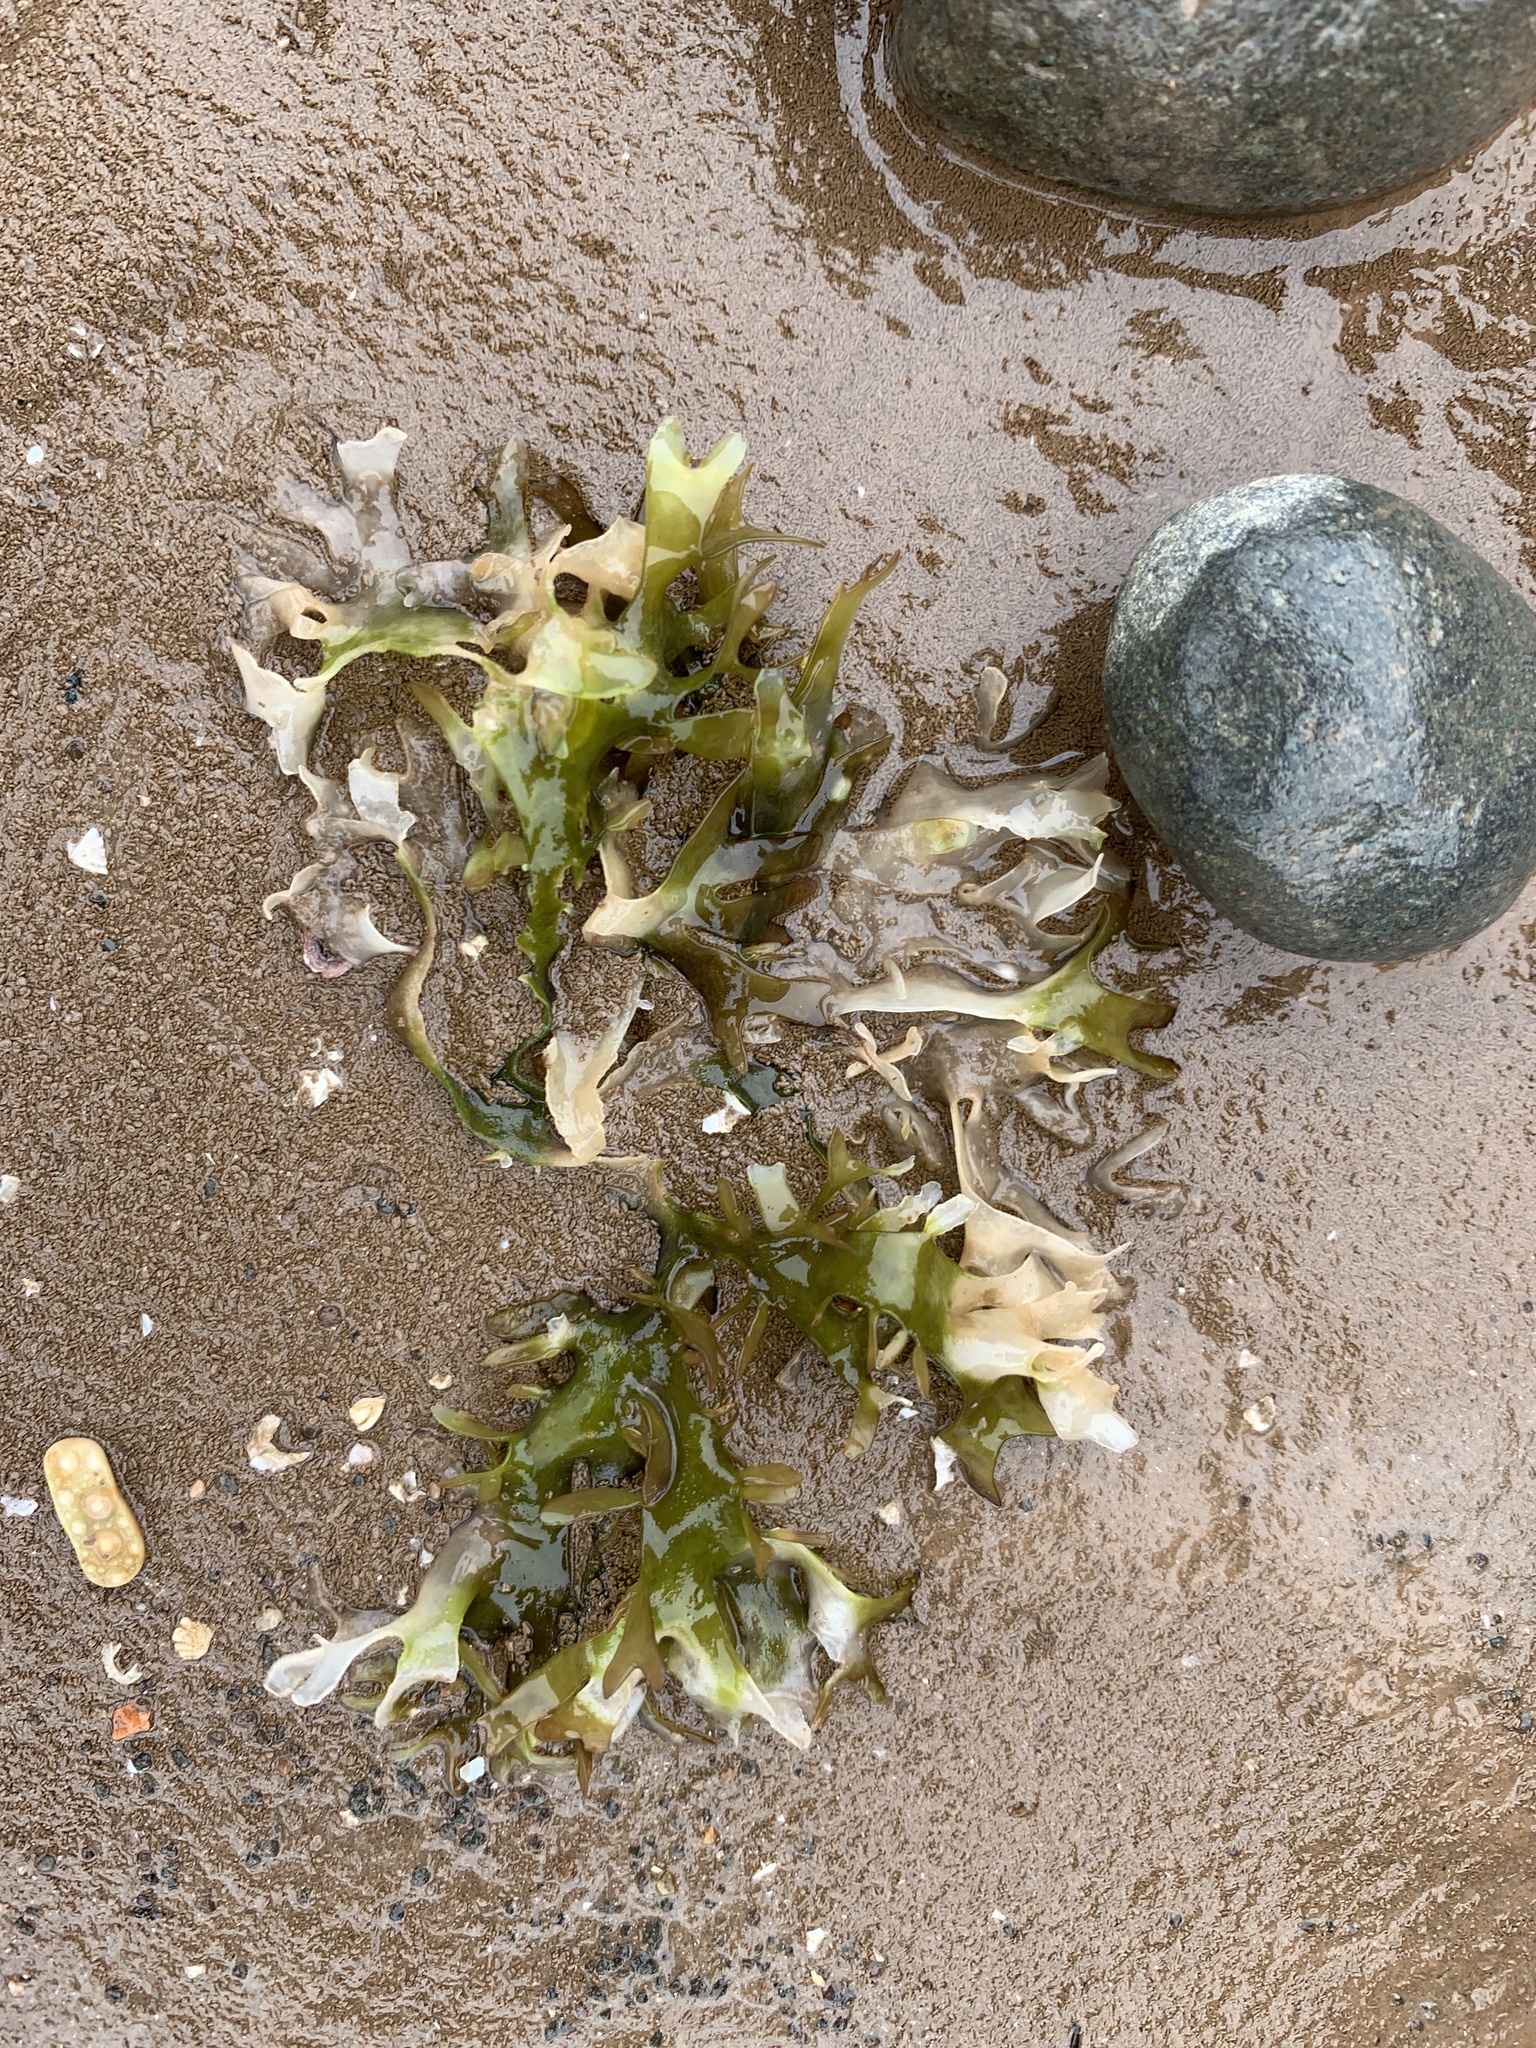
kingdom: Plantae
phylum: Rhodophyta
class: Florideophyceae
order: Gigartinales
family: Gigartinaceae
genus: Chondrus
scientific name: Chondrus crispus
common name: Carrageen
